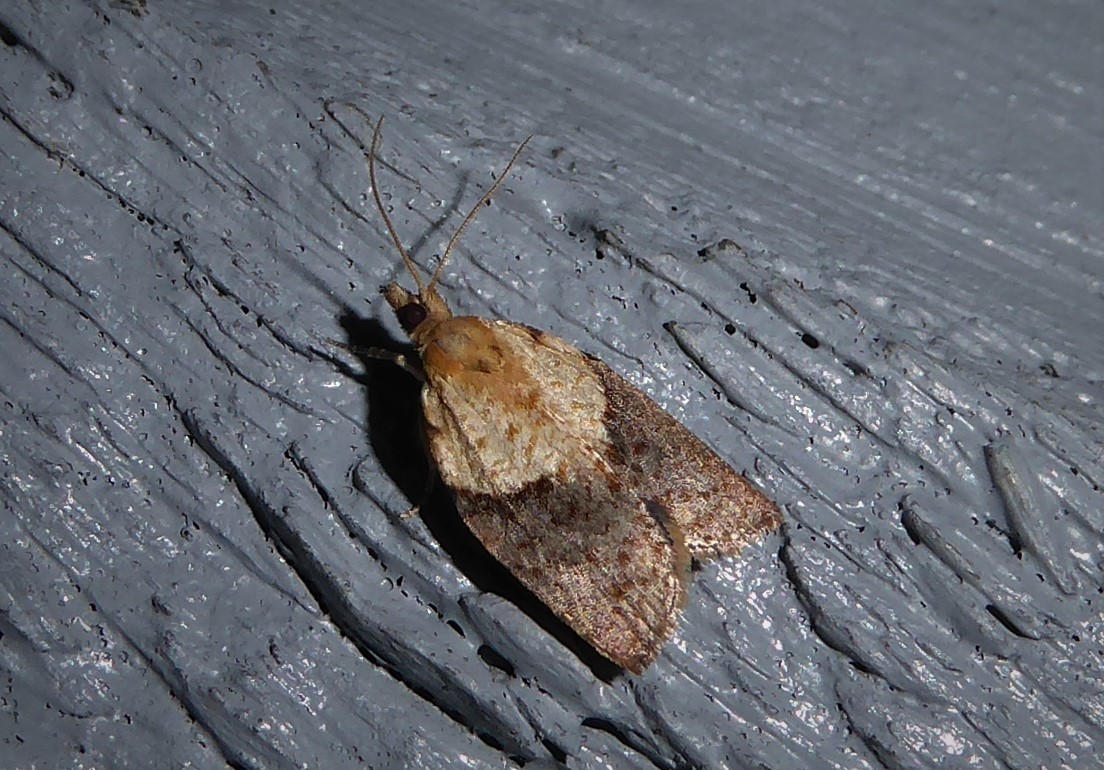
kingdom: Animalia
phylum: Arthropoda
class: Insecta
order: Lepidoptera
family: Tortricidae
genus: Epiphyas
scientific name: Epiphyas postvittana
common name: Light brown apple moth
